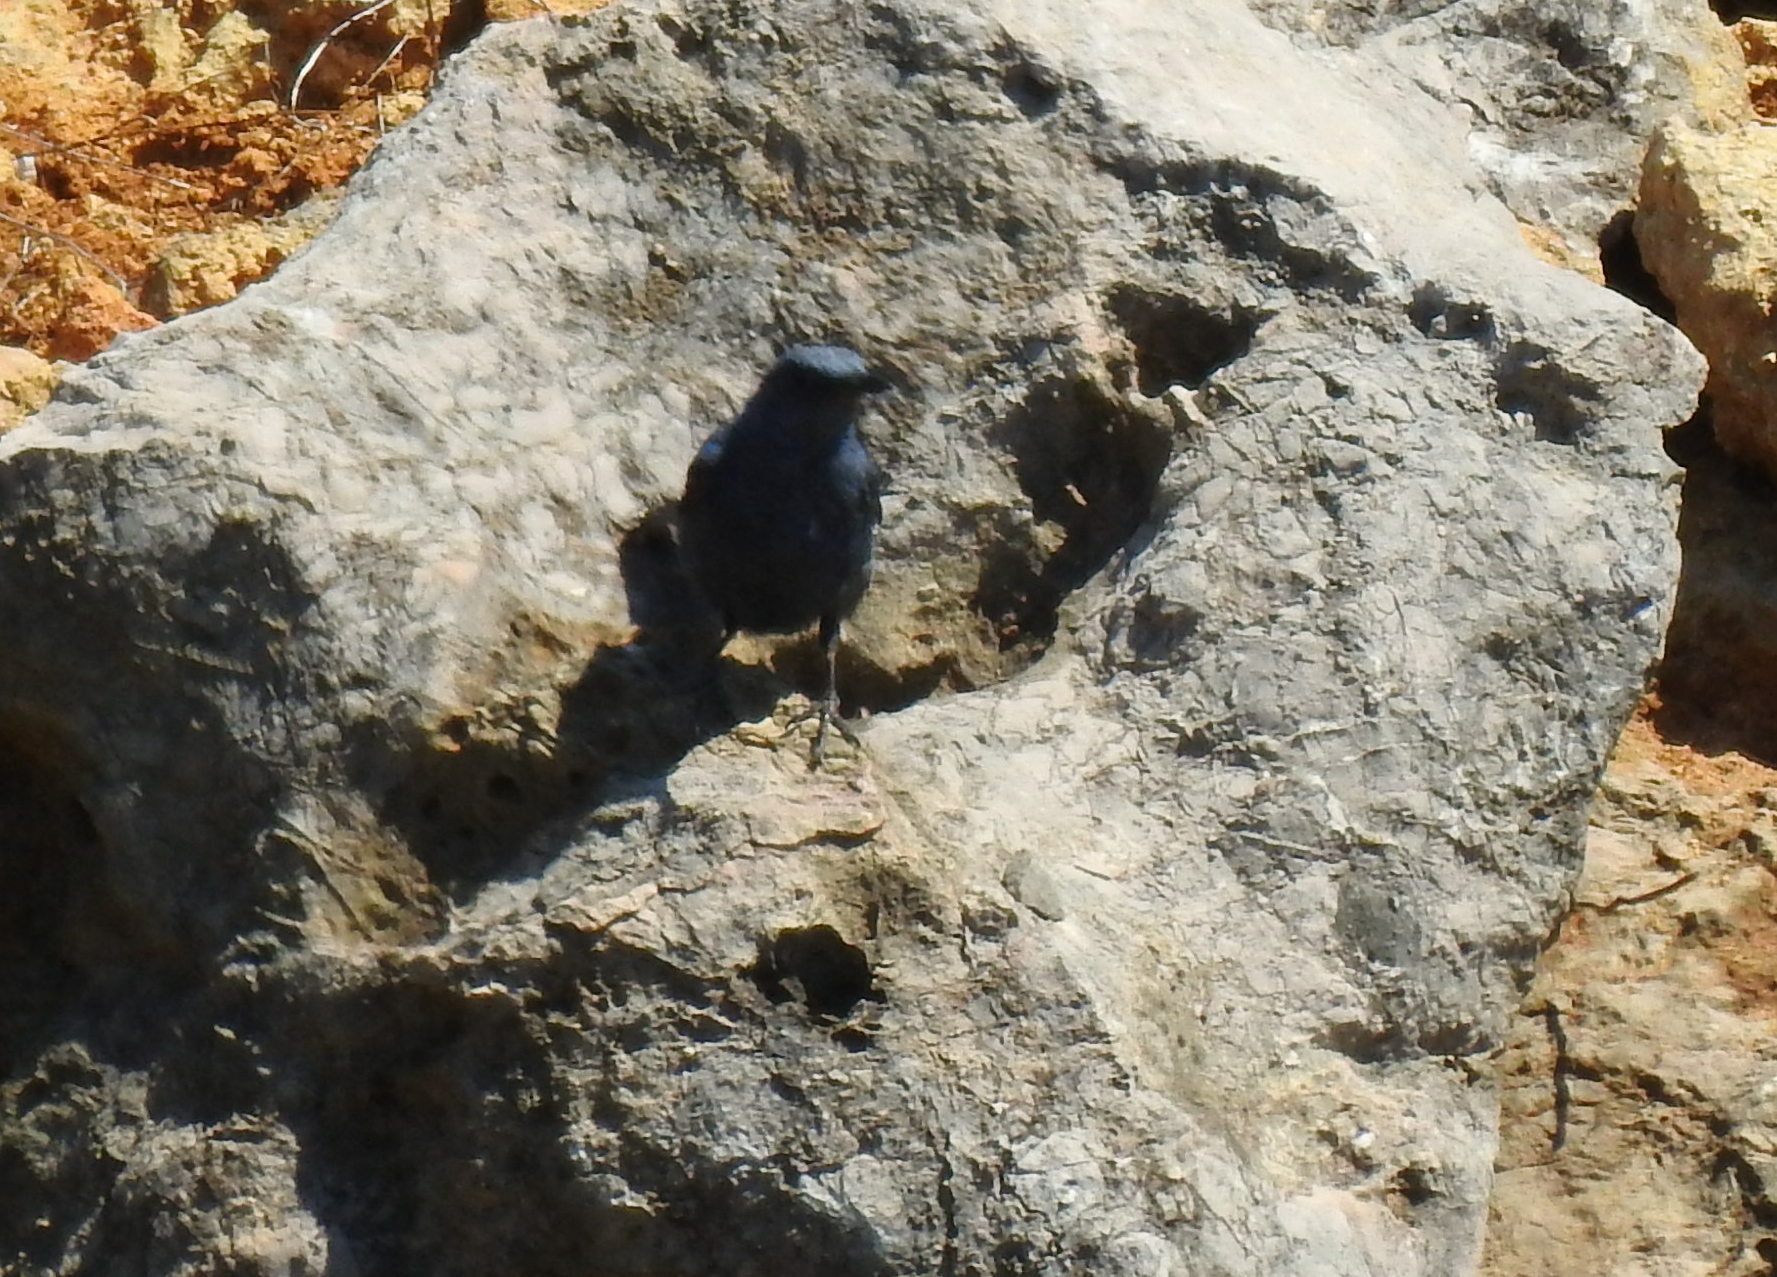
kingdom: Animalia
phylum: Chordata
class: Aves
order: Passeriformes
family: Muscicapidae
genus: Monticola
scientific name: Monticola solitarius
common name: Blue rock thrush
